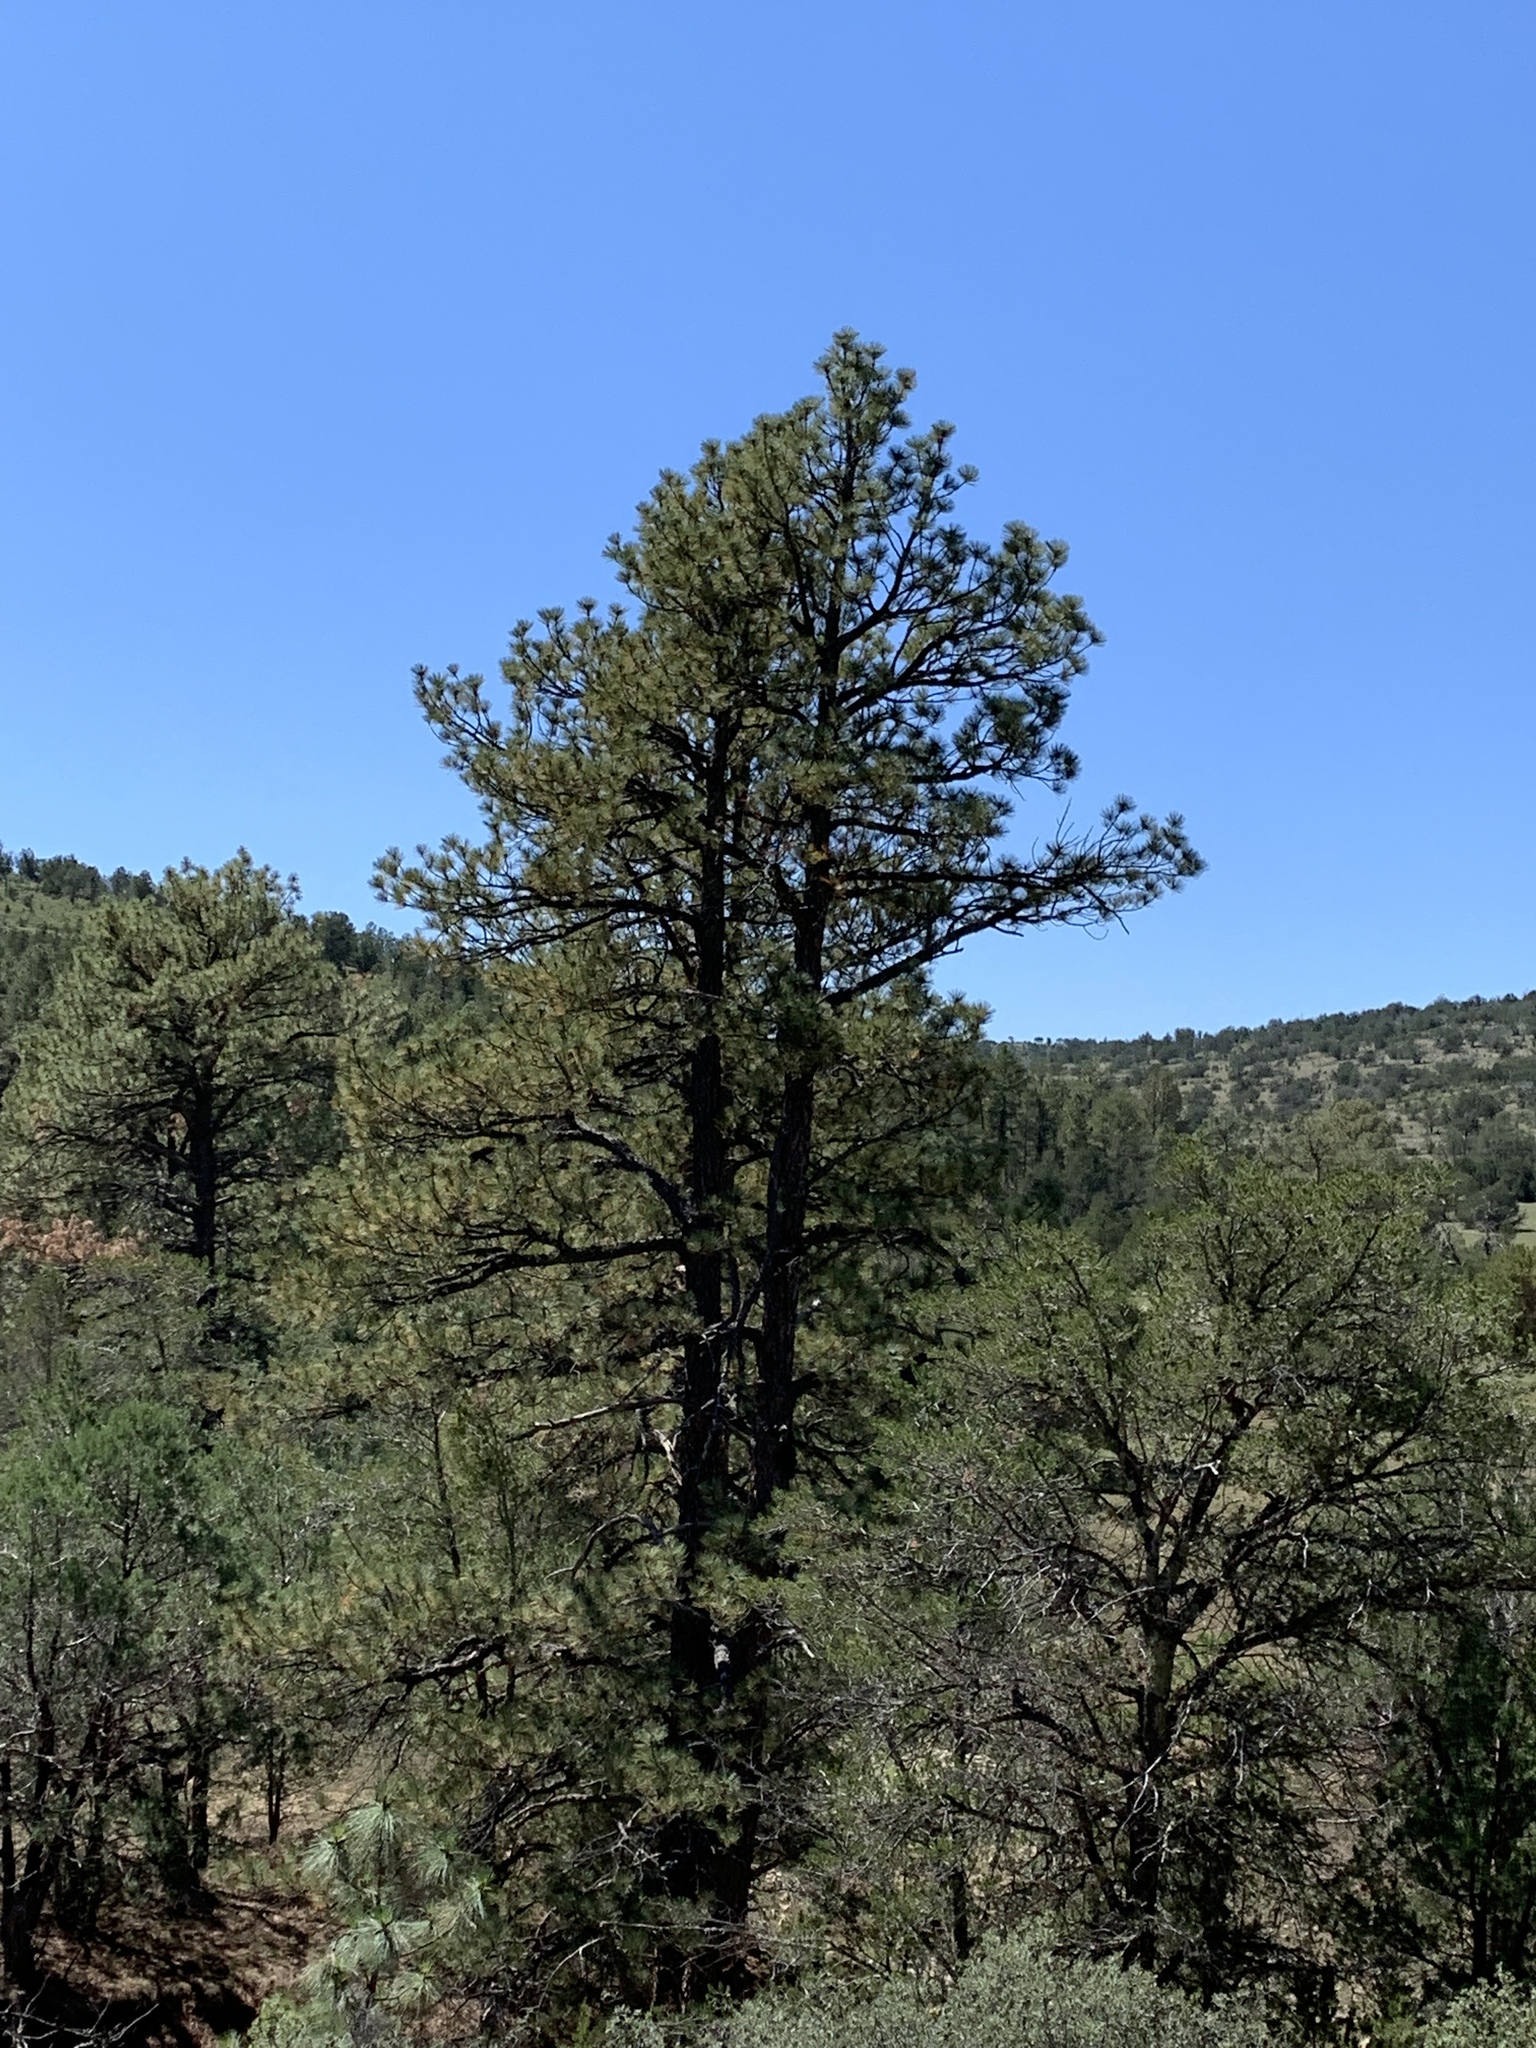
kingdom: Plantae
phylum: Tracheophyta
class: Pinopsida
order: Pinales
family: Pinaceae
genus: Pinus
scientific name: Pinus ponderosa
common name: Western yellow-pine
